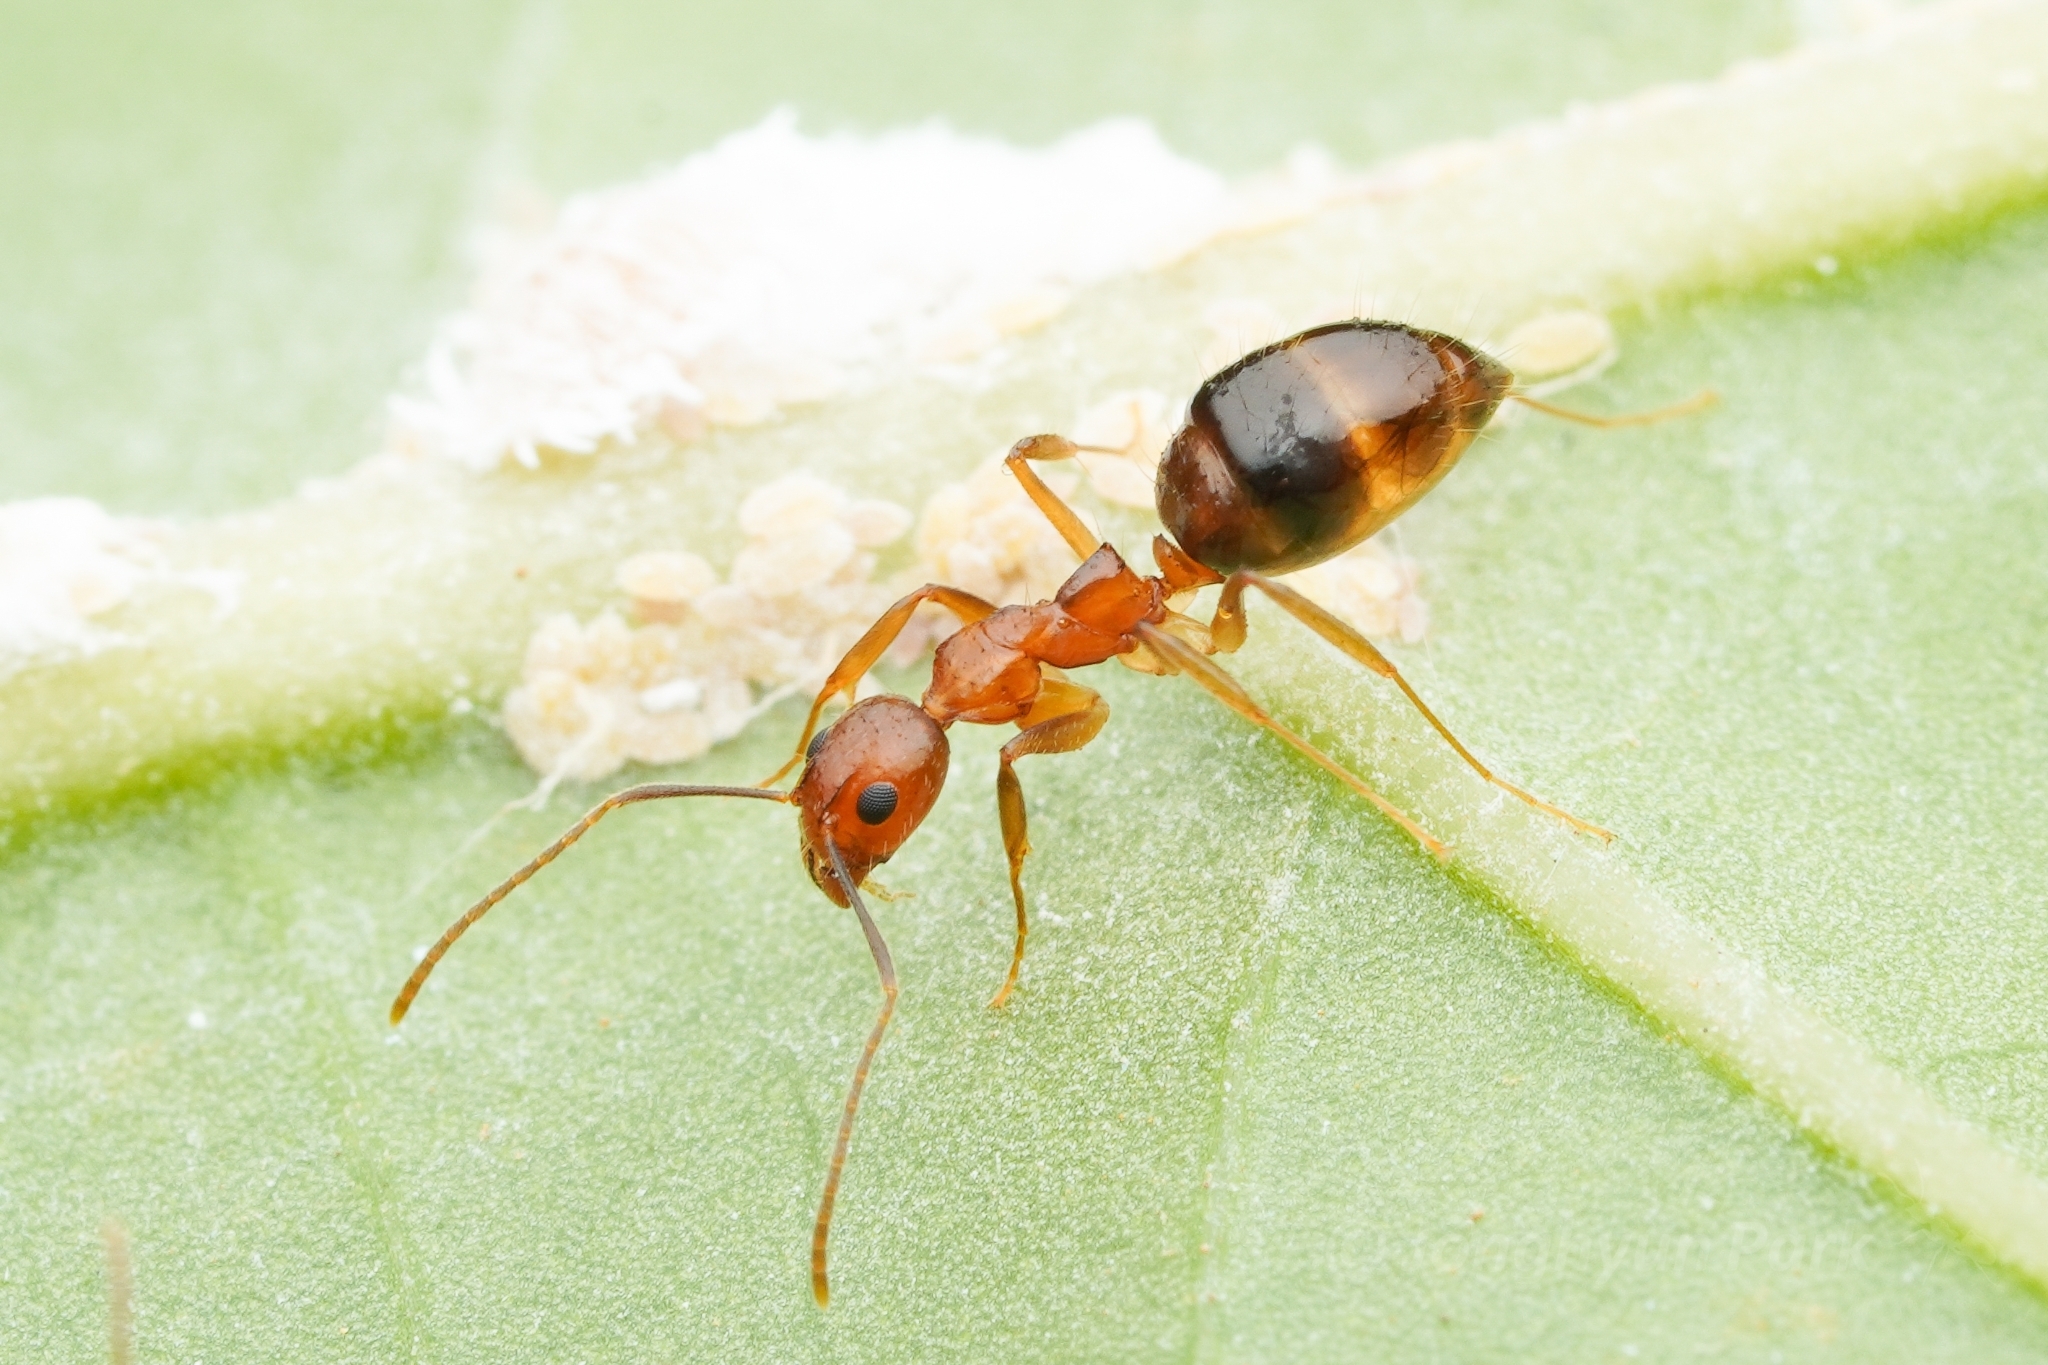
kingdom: Animalia
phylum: Arthropoda
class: Insecta
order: Hymenoptera
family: Formicidae
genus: Dolichoderus
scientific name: Dolichoderus ghilianii
